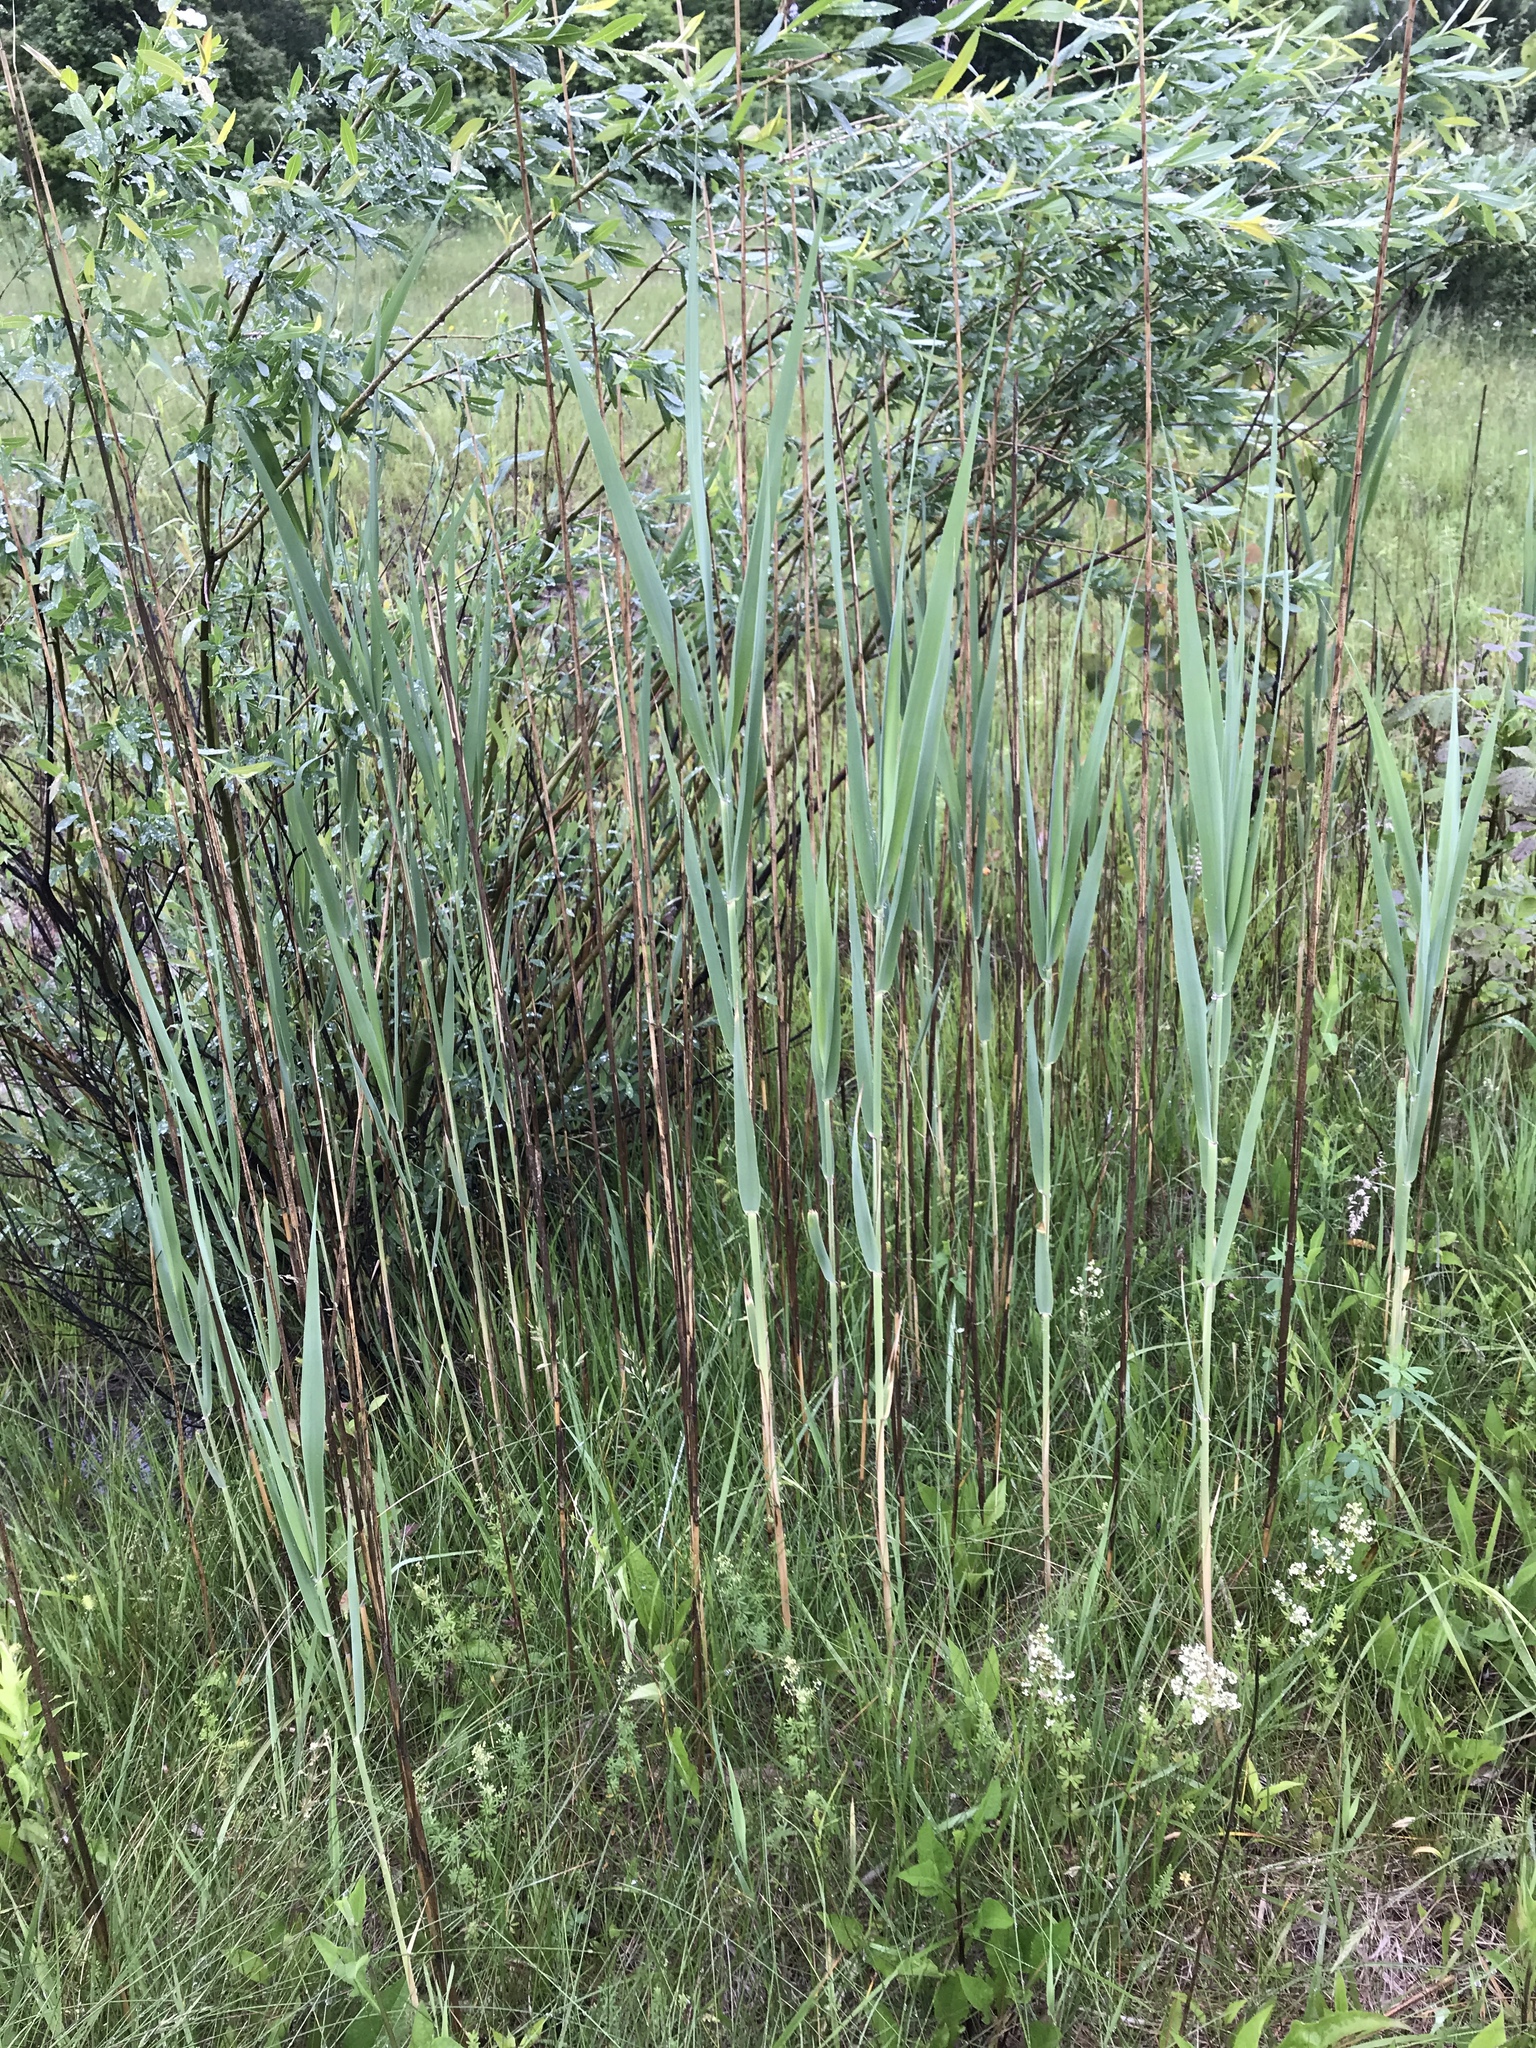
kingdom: Plantae
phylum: Tracheophyta
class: Liliopsida
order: Poales
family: Poaceae
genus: Phragmites
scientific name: Phragmites australis
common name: Common reed
